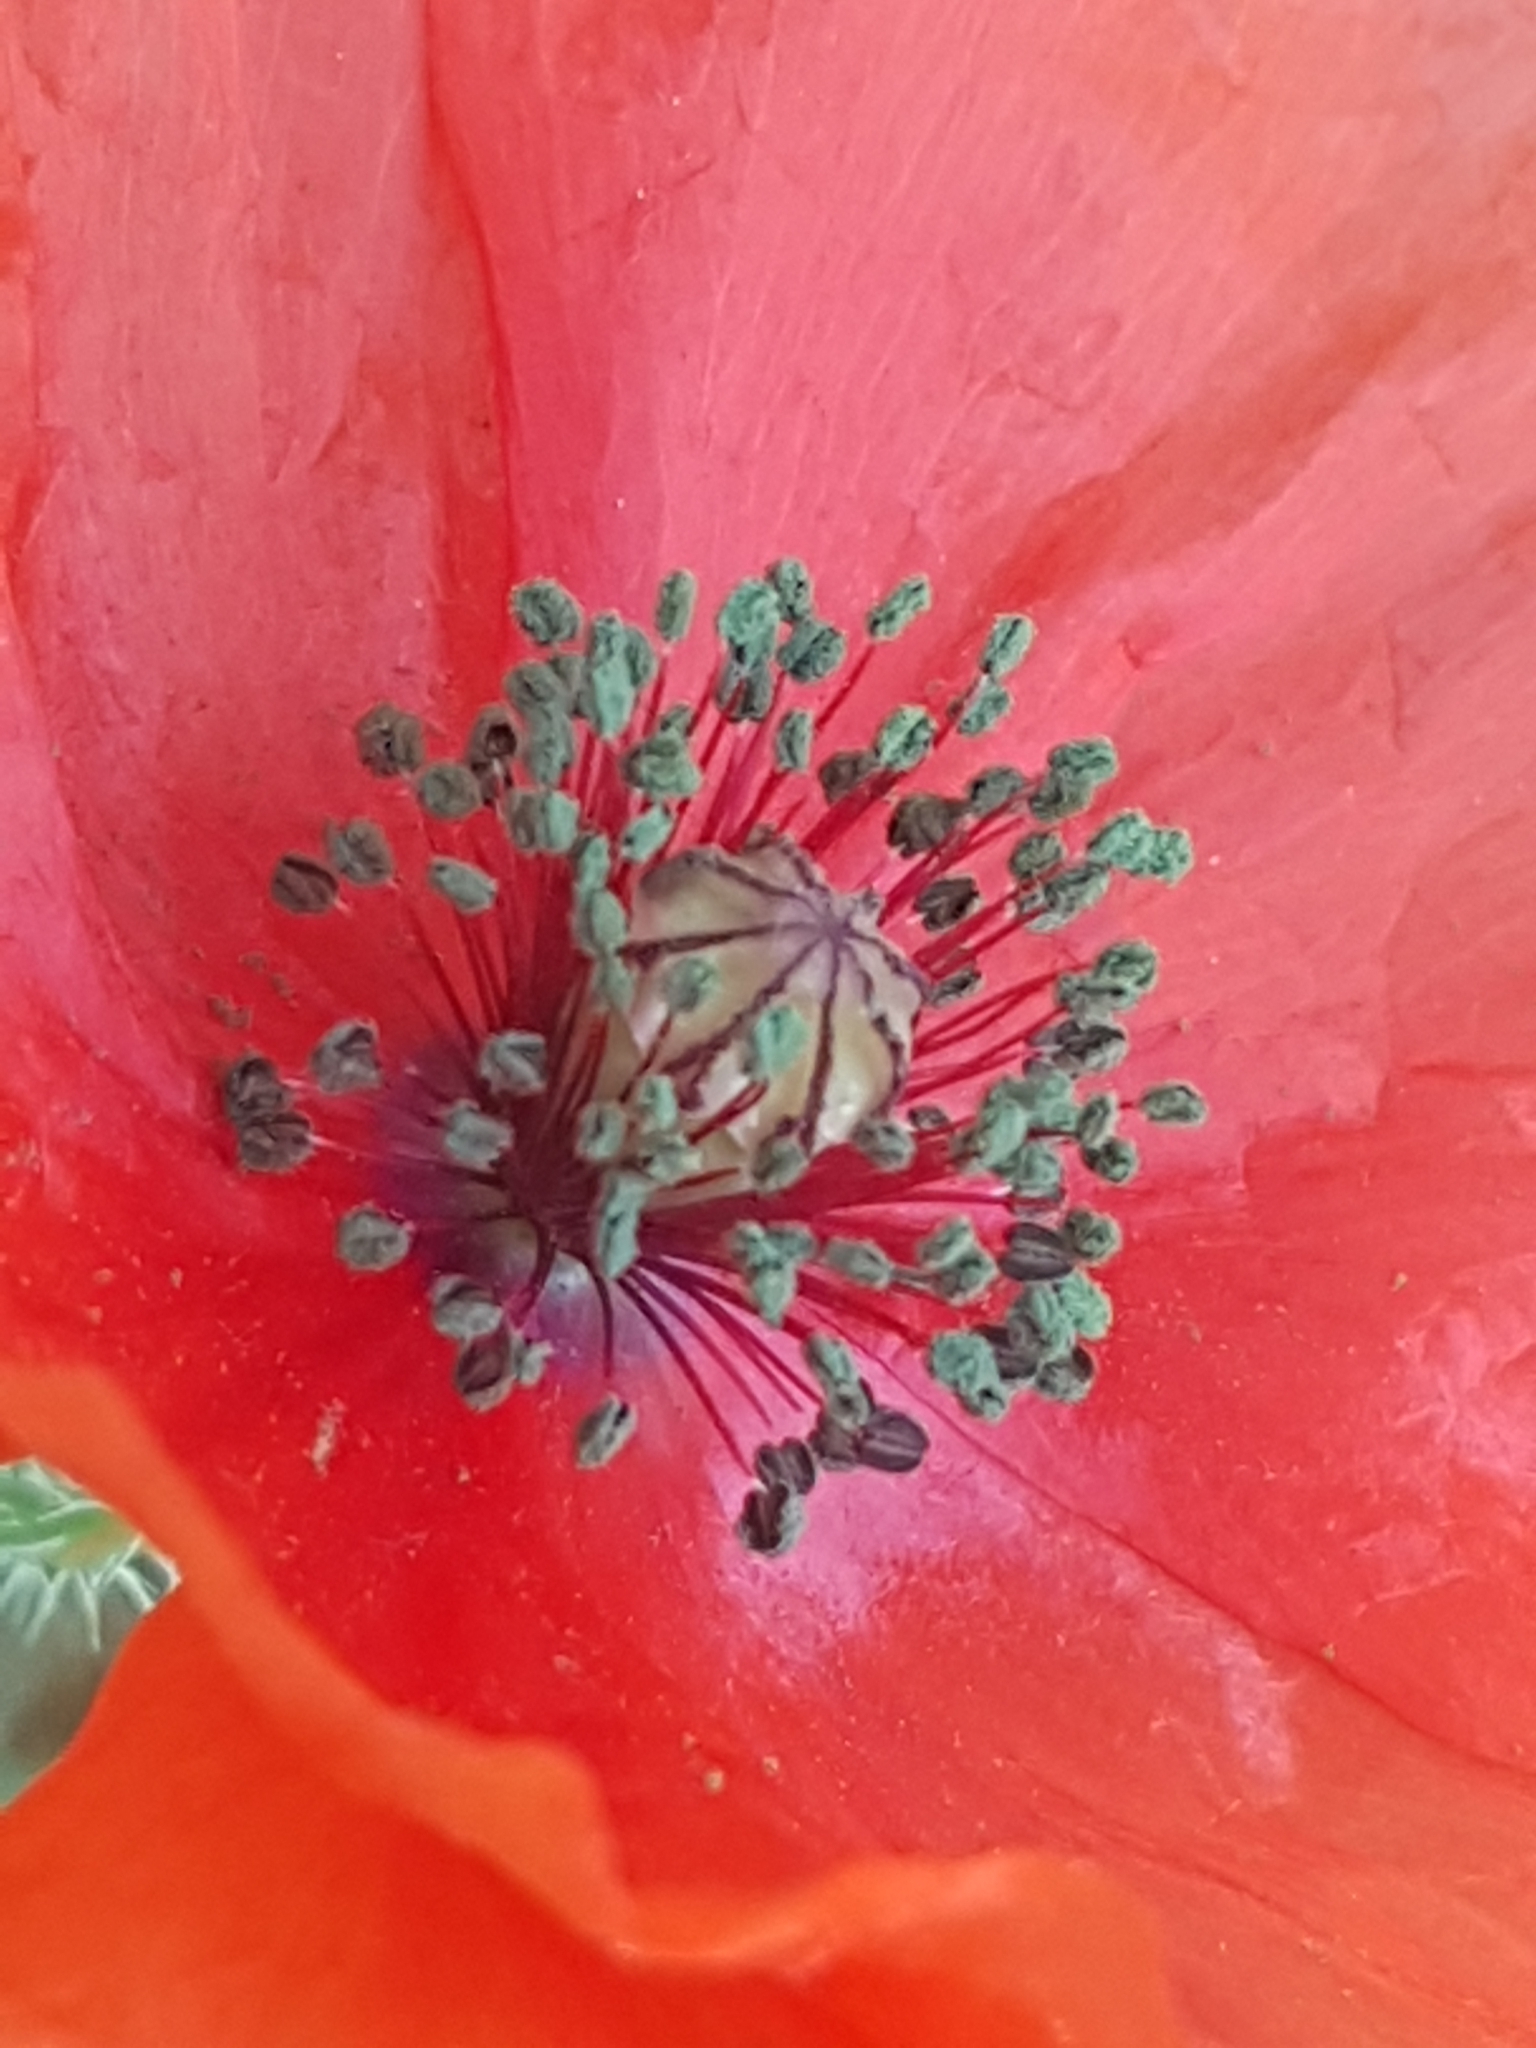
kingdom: Plantae
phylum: Tracheophyta
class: Magnoliopsida
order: Ranunculales
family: Papaveraceae
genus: Papaver
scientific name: Papaver rhoeas
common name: Corn poppy
